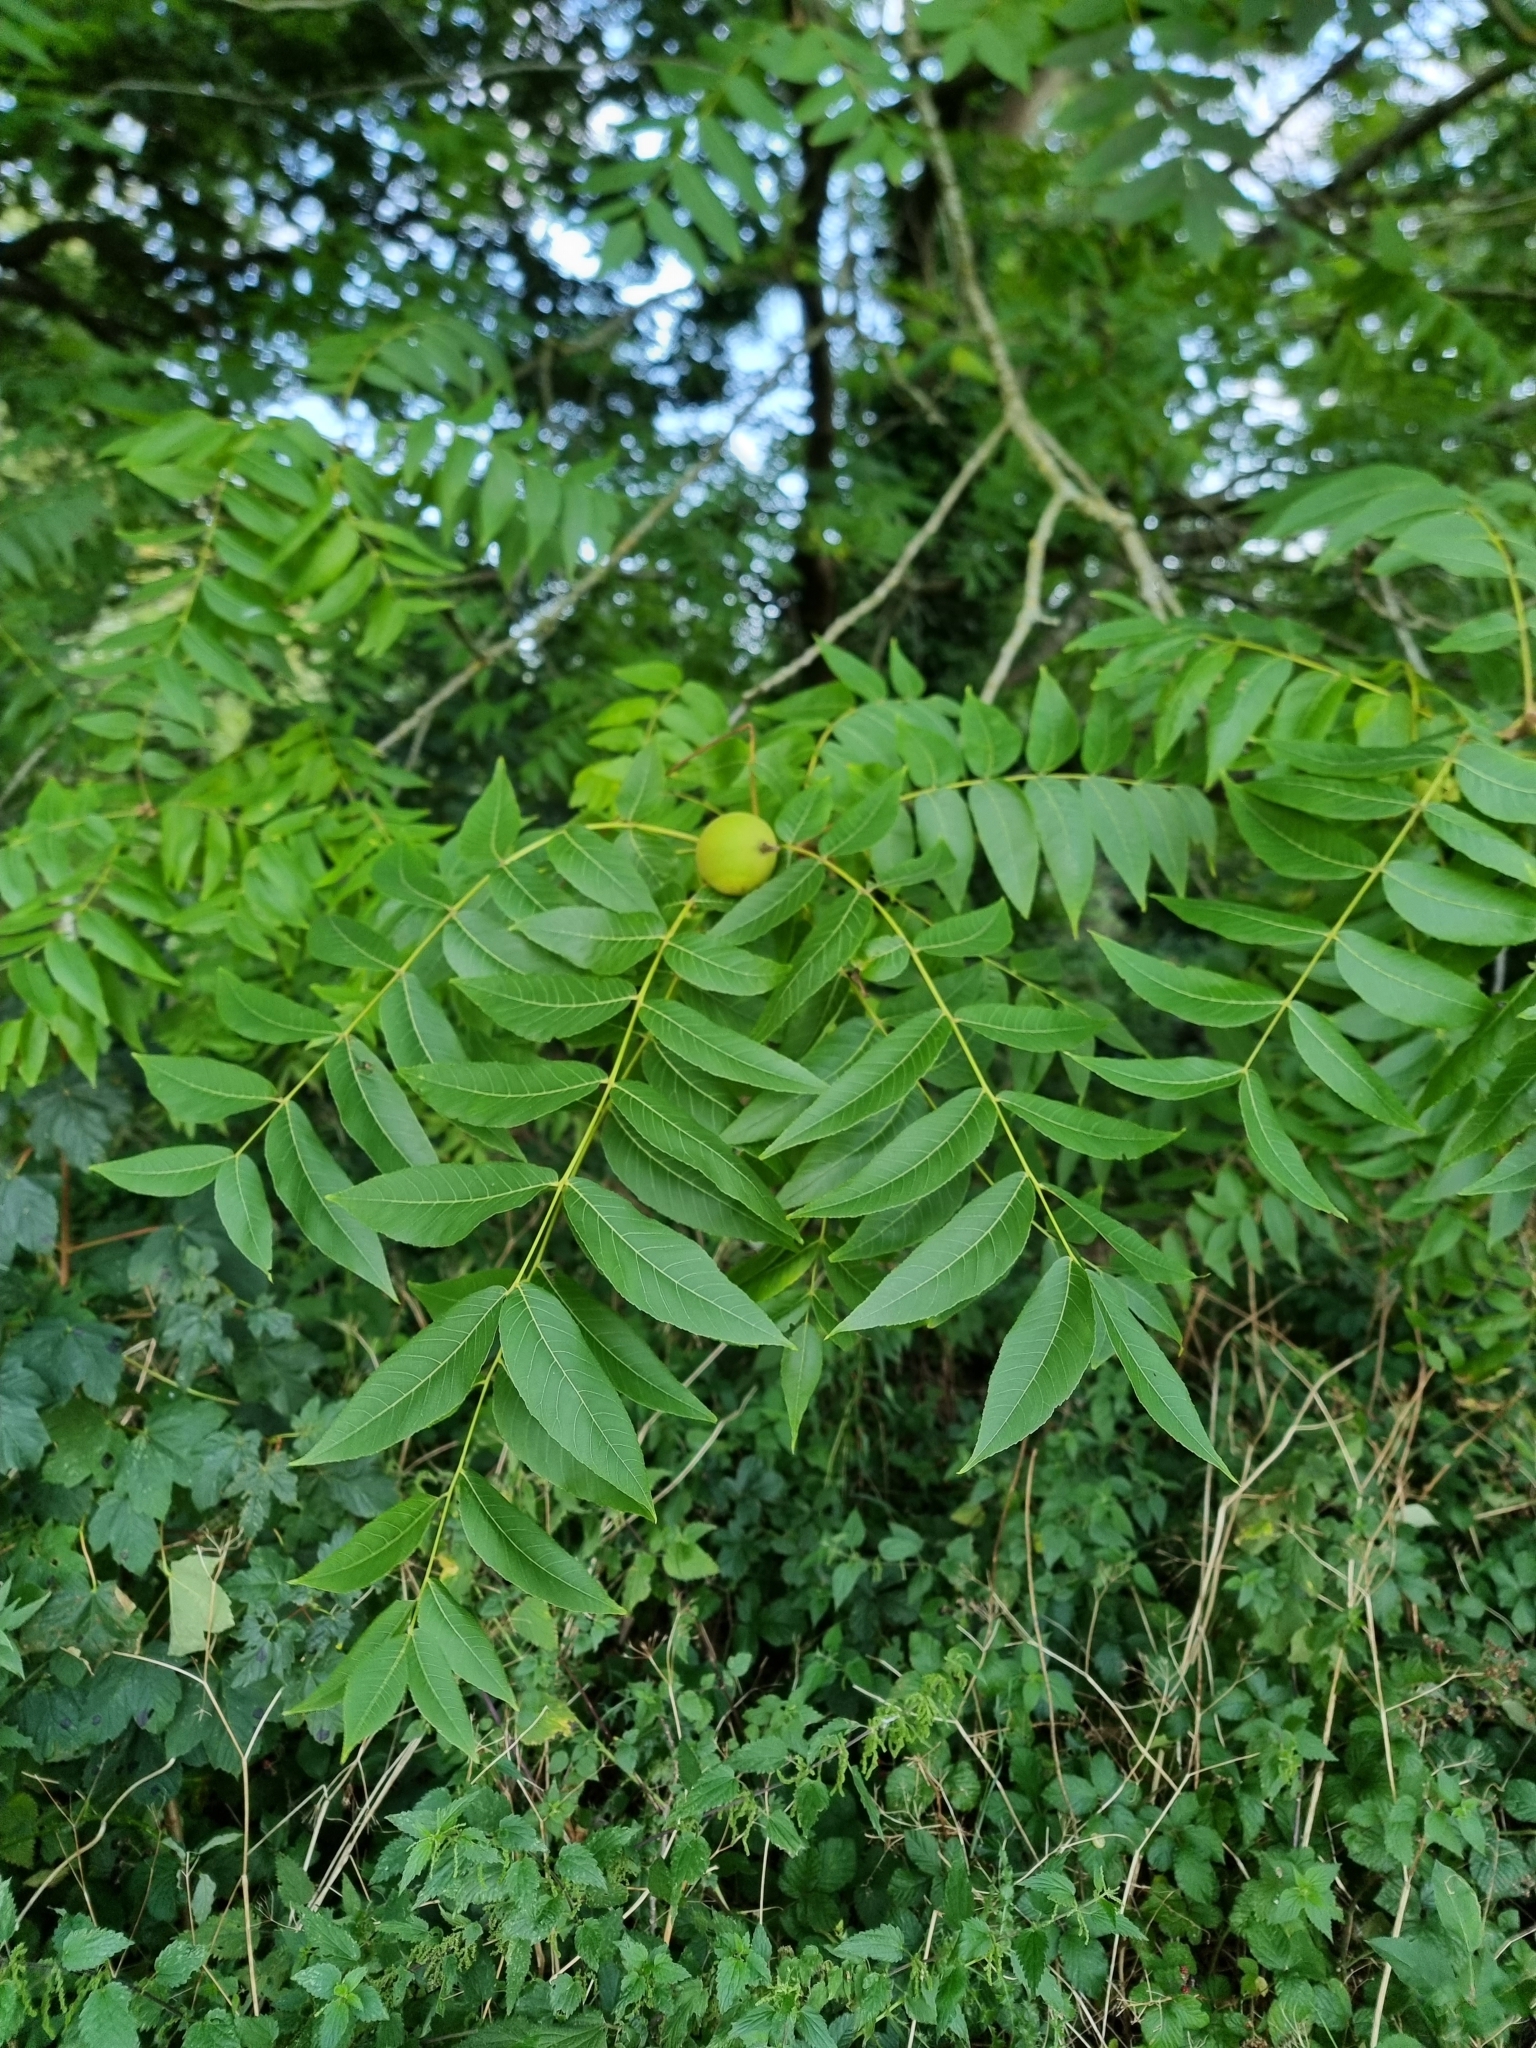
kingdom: Plantae
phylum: Tracheophyta
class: Magnoliopsida
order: Fagales
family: Juglandaceae
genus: Juglans
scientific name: Juglans nigra
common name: Black walnut
